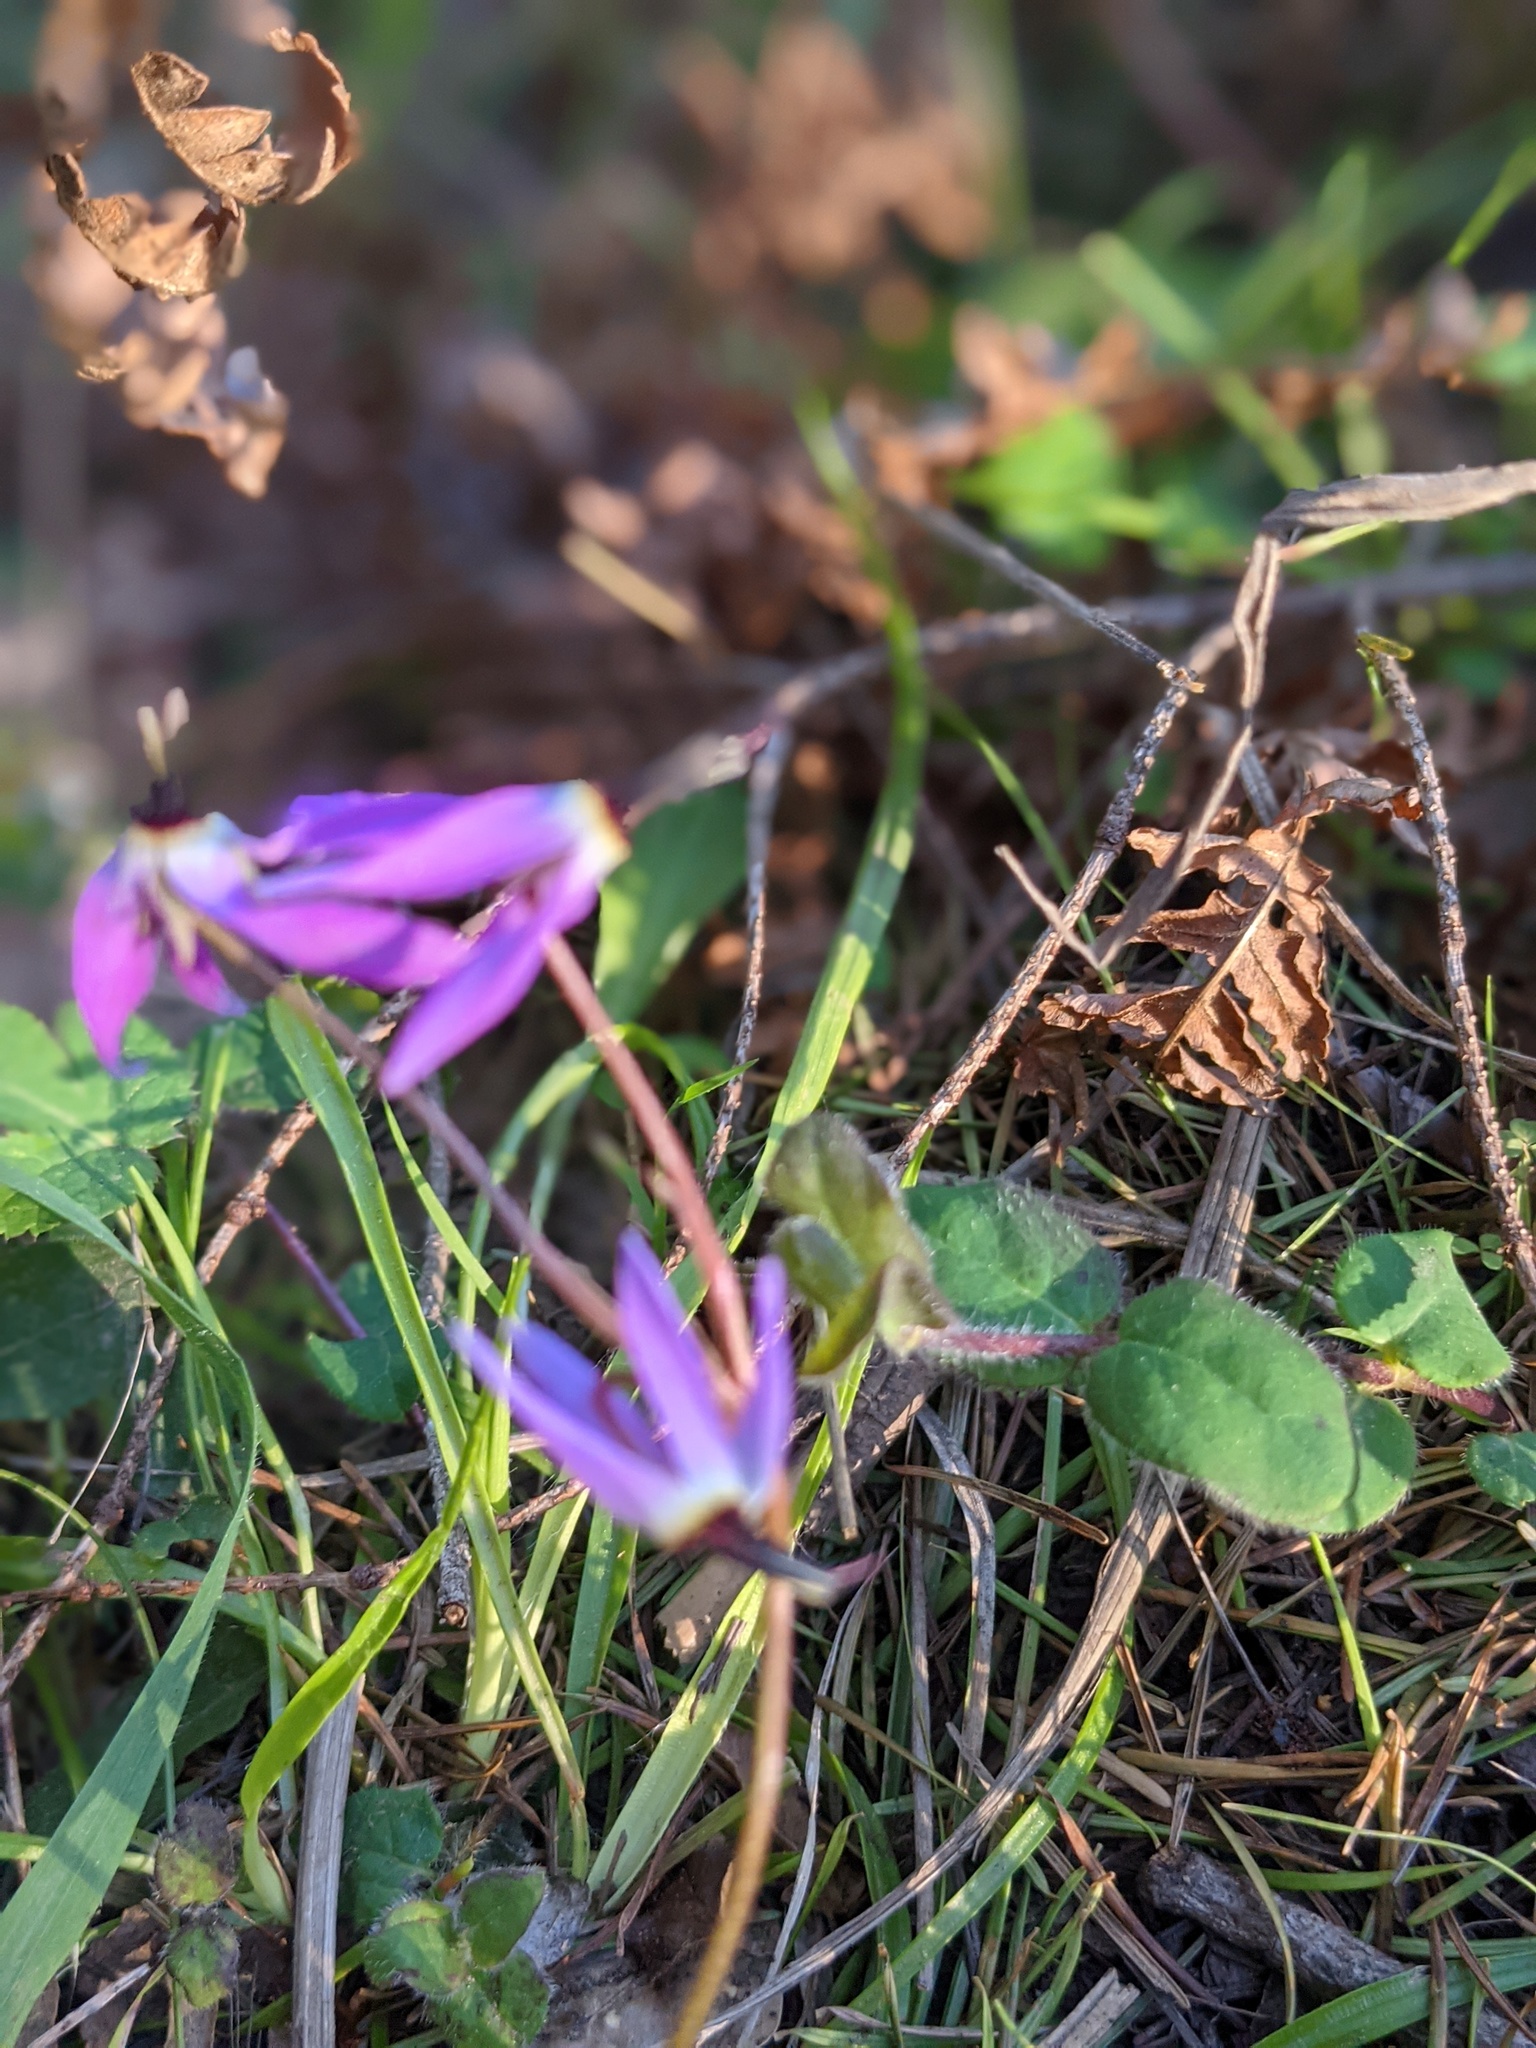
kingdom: Plantae
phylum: Tracheophyta
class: Magnoliopsida
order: Ericales
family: Primulaceae
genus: Dodecatheon
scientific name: Dodecatheon hendersonii
